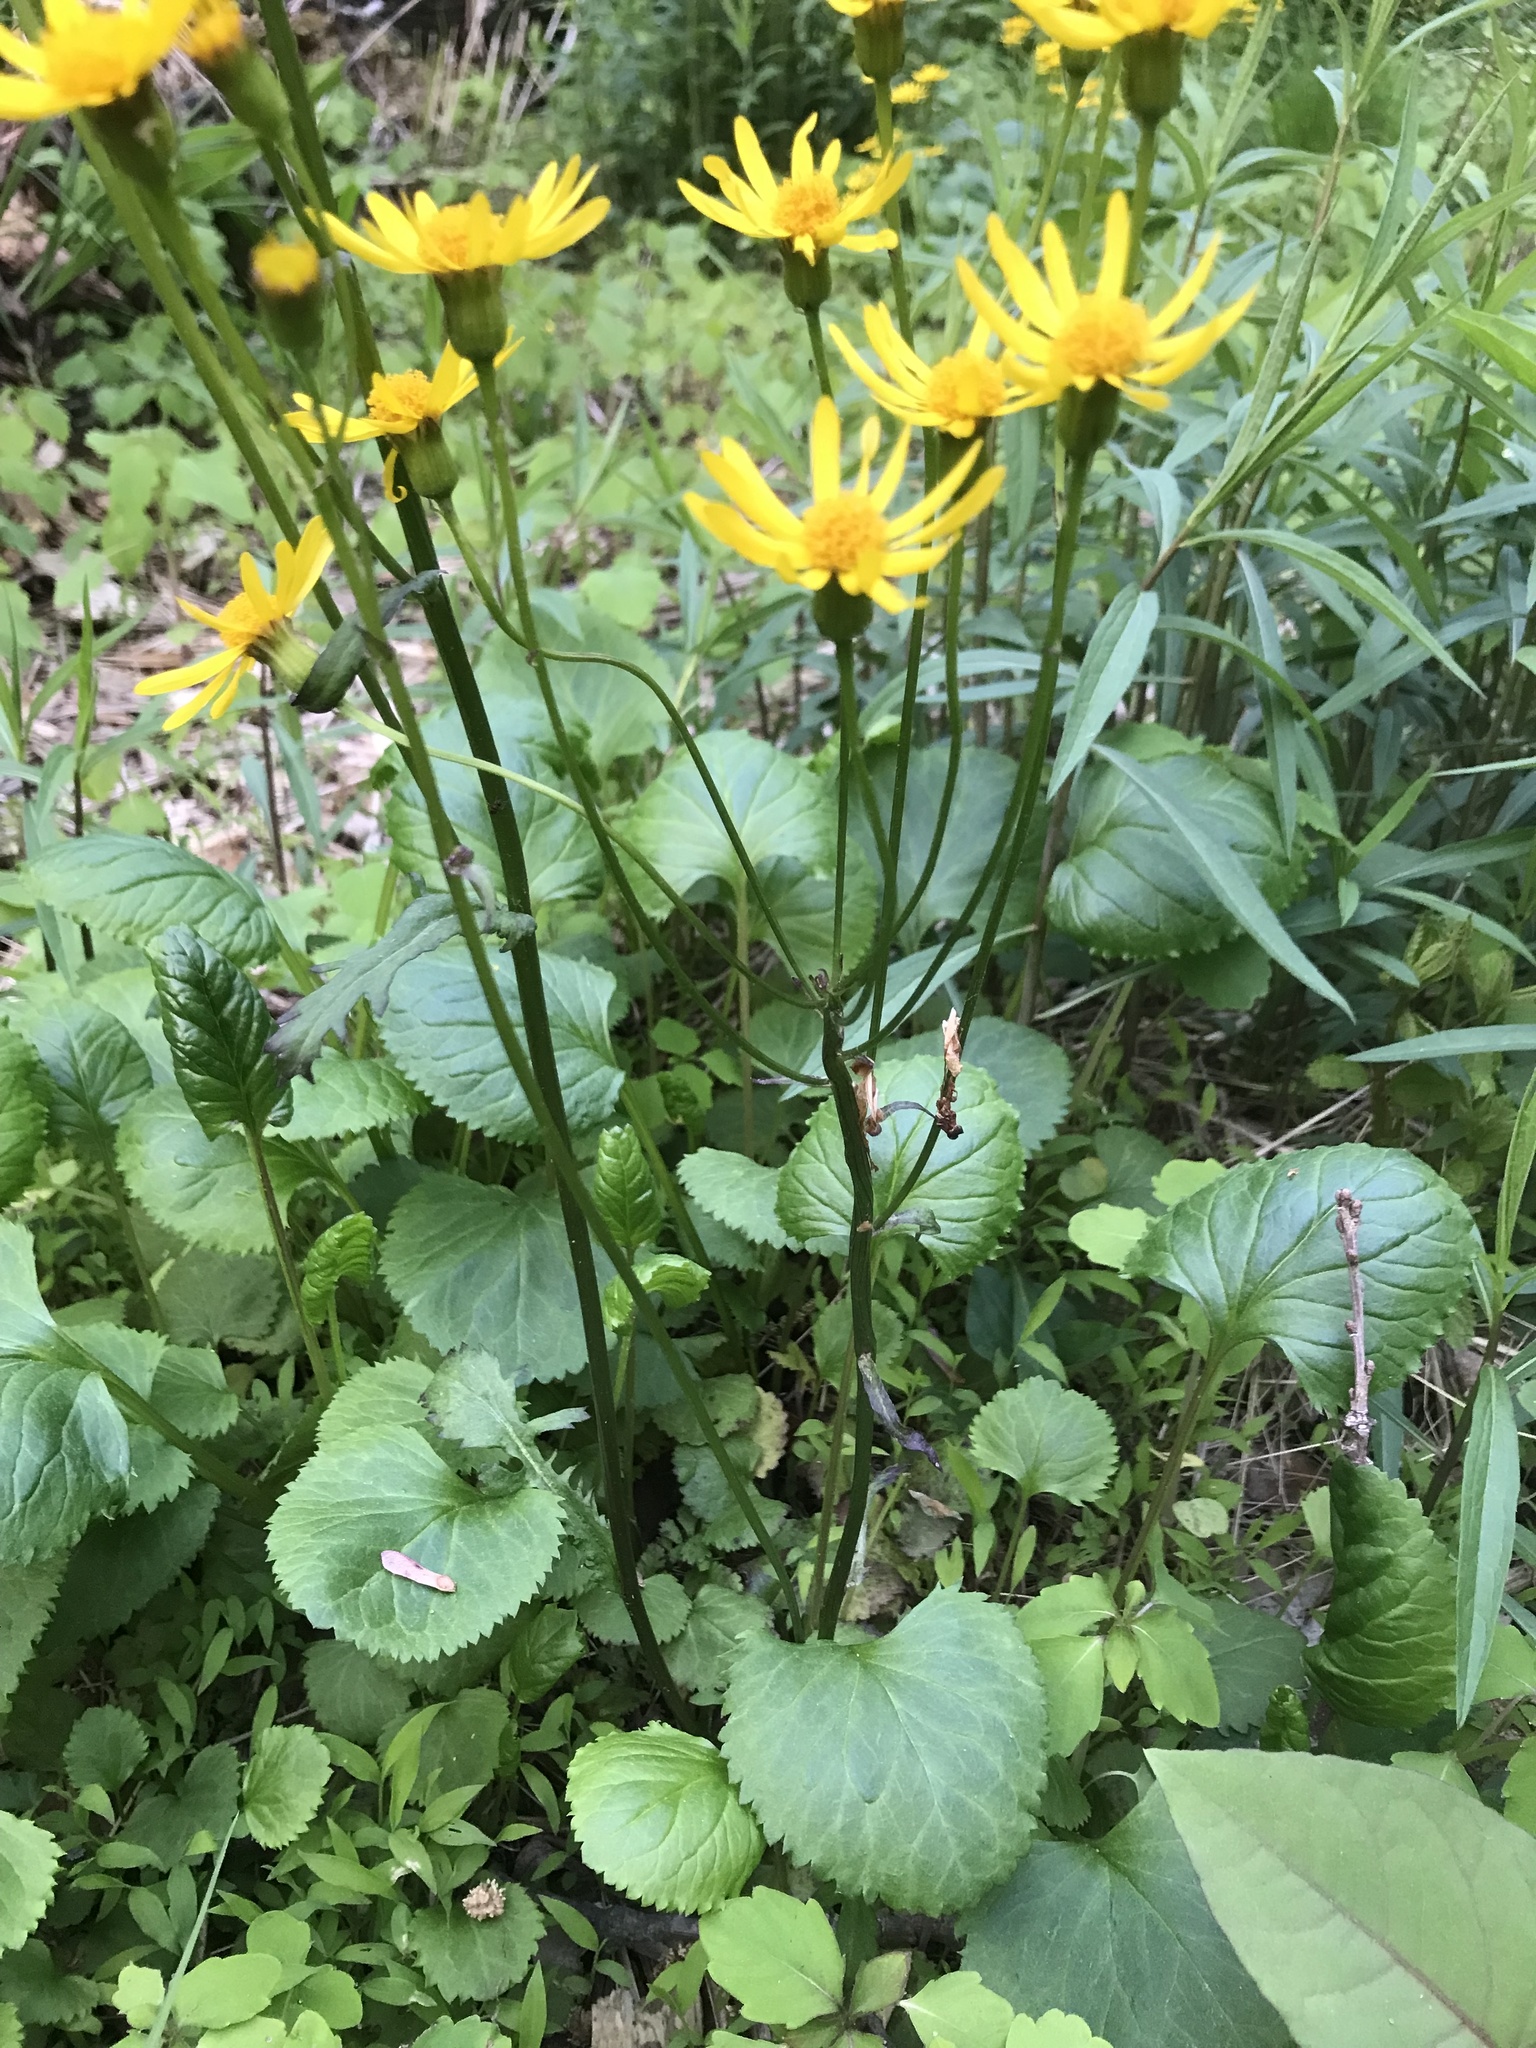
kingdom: Plantae
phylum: Tracheophyta
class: Magnoliopsida
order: Asterales
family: Asteraceae
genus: Packera
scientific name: Packera aurea
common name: Golden groundsel
